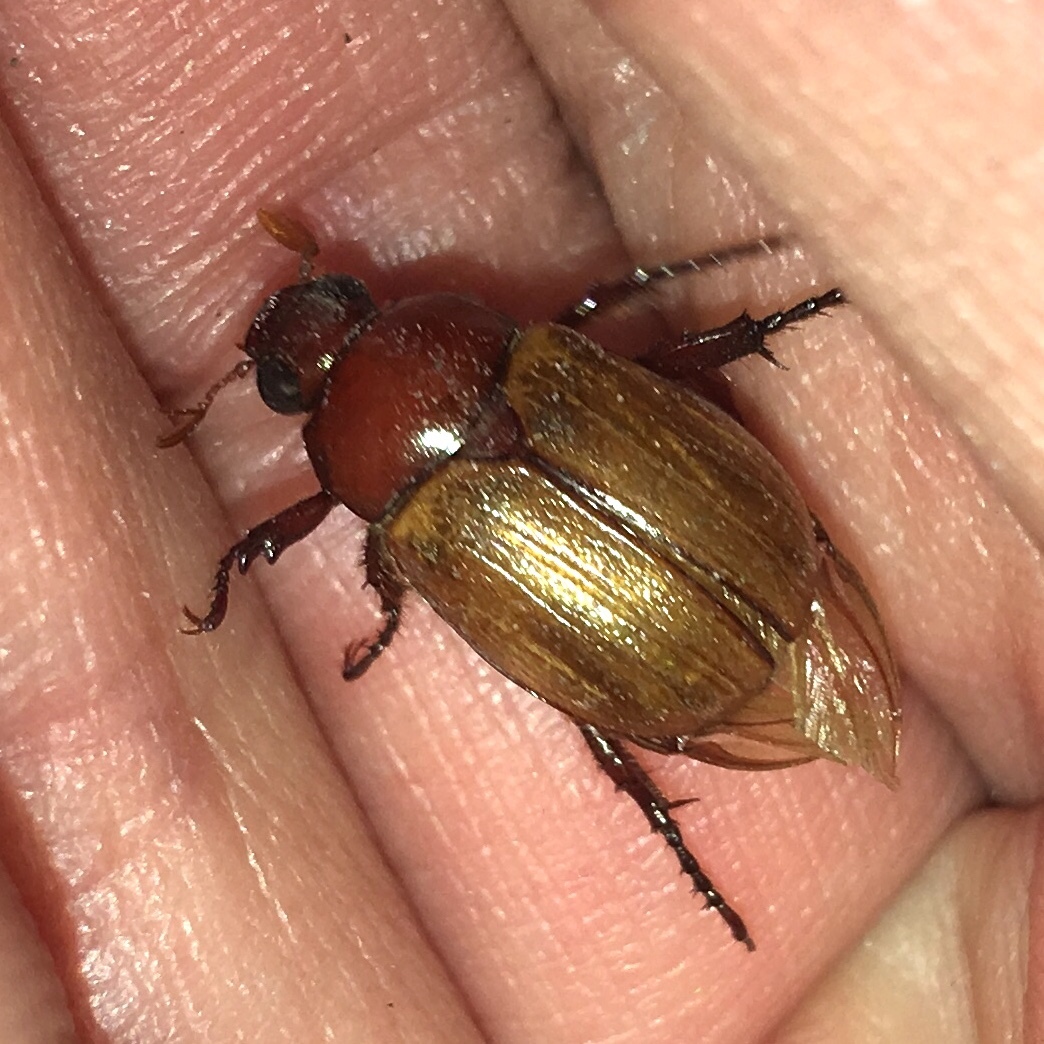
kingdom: Animalia
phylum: Arthropoda
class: Insecta
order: Coleoptera
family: Scarabaeidae
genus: Paranomala
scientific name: Paranomala flavipennis
